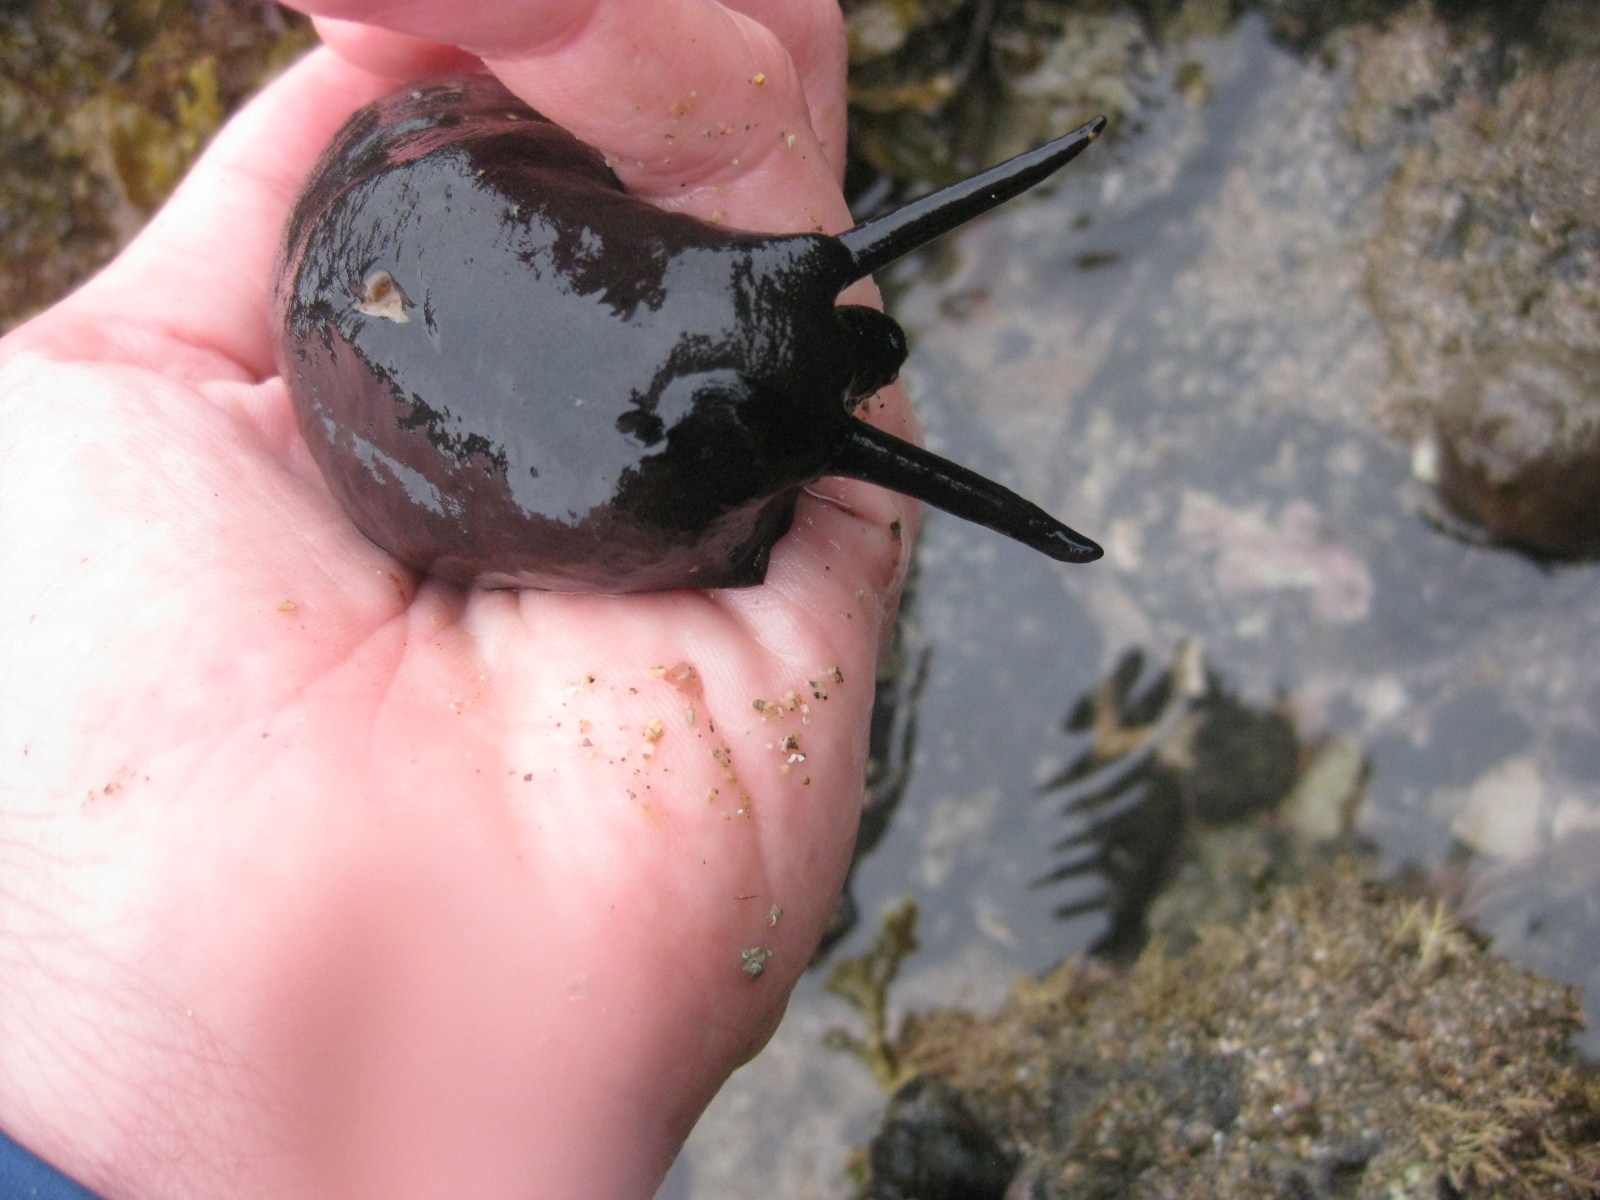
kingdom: Animalia
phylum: Mollusca
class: Gastropoda
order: Lepetellida
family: Fissurellidae
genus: Scutus
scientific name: Scutus breviculus
